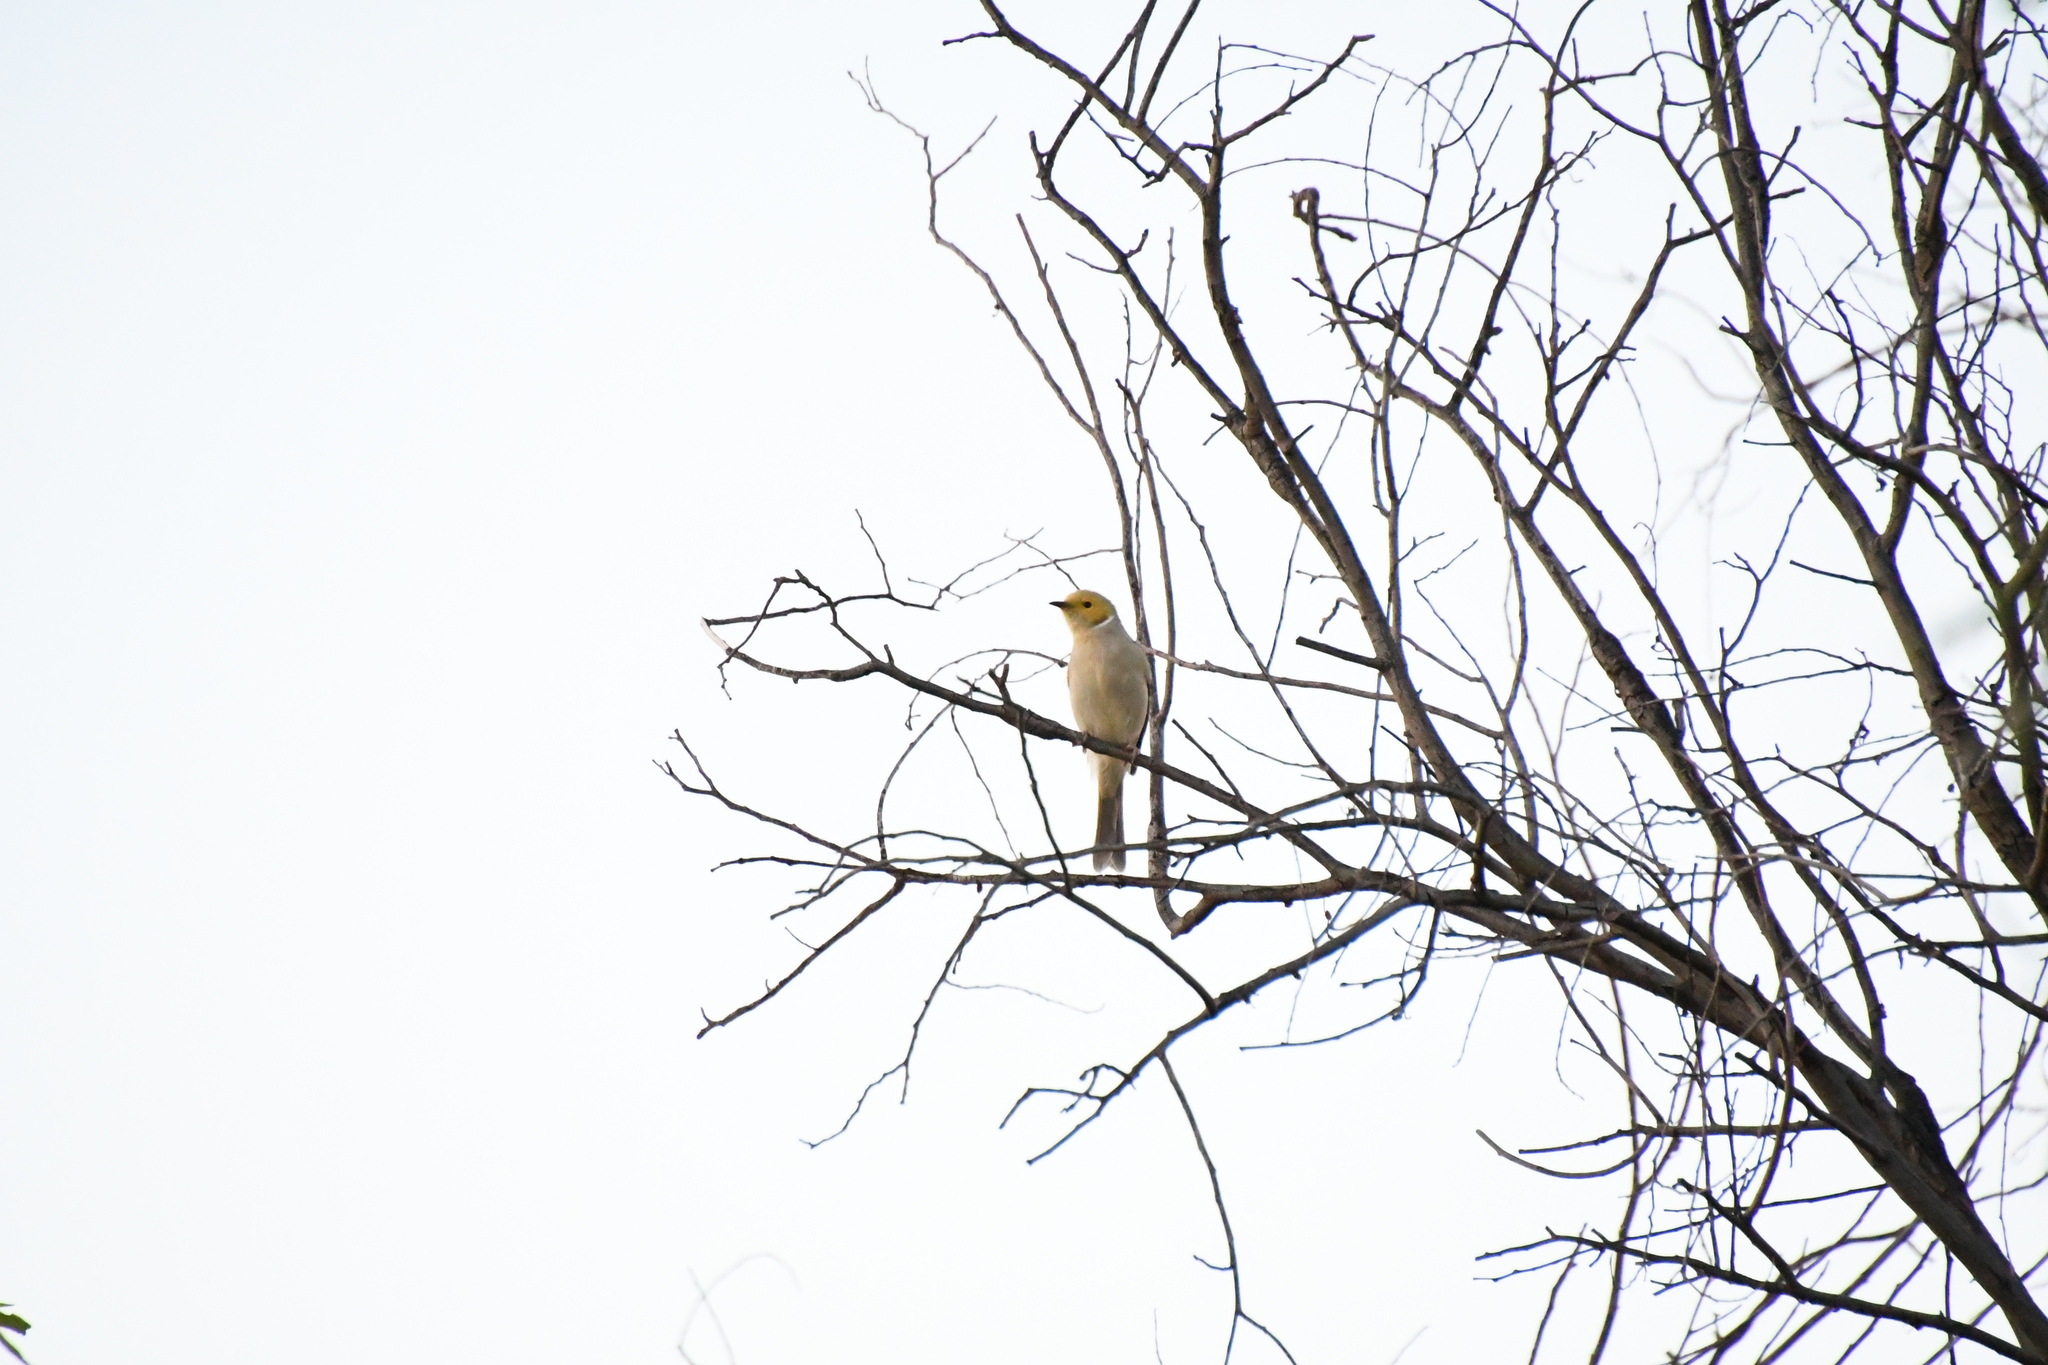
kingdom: Animalia
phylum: Chordata
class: Aves
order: Passeriformes
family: Meliphagidae
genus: Ptilotula
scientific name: Ptilotula penicillata
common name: White-plumed honeyeater
